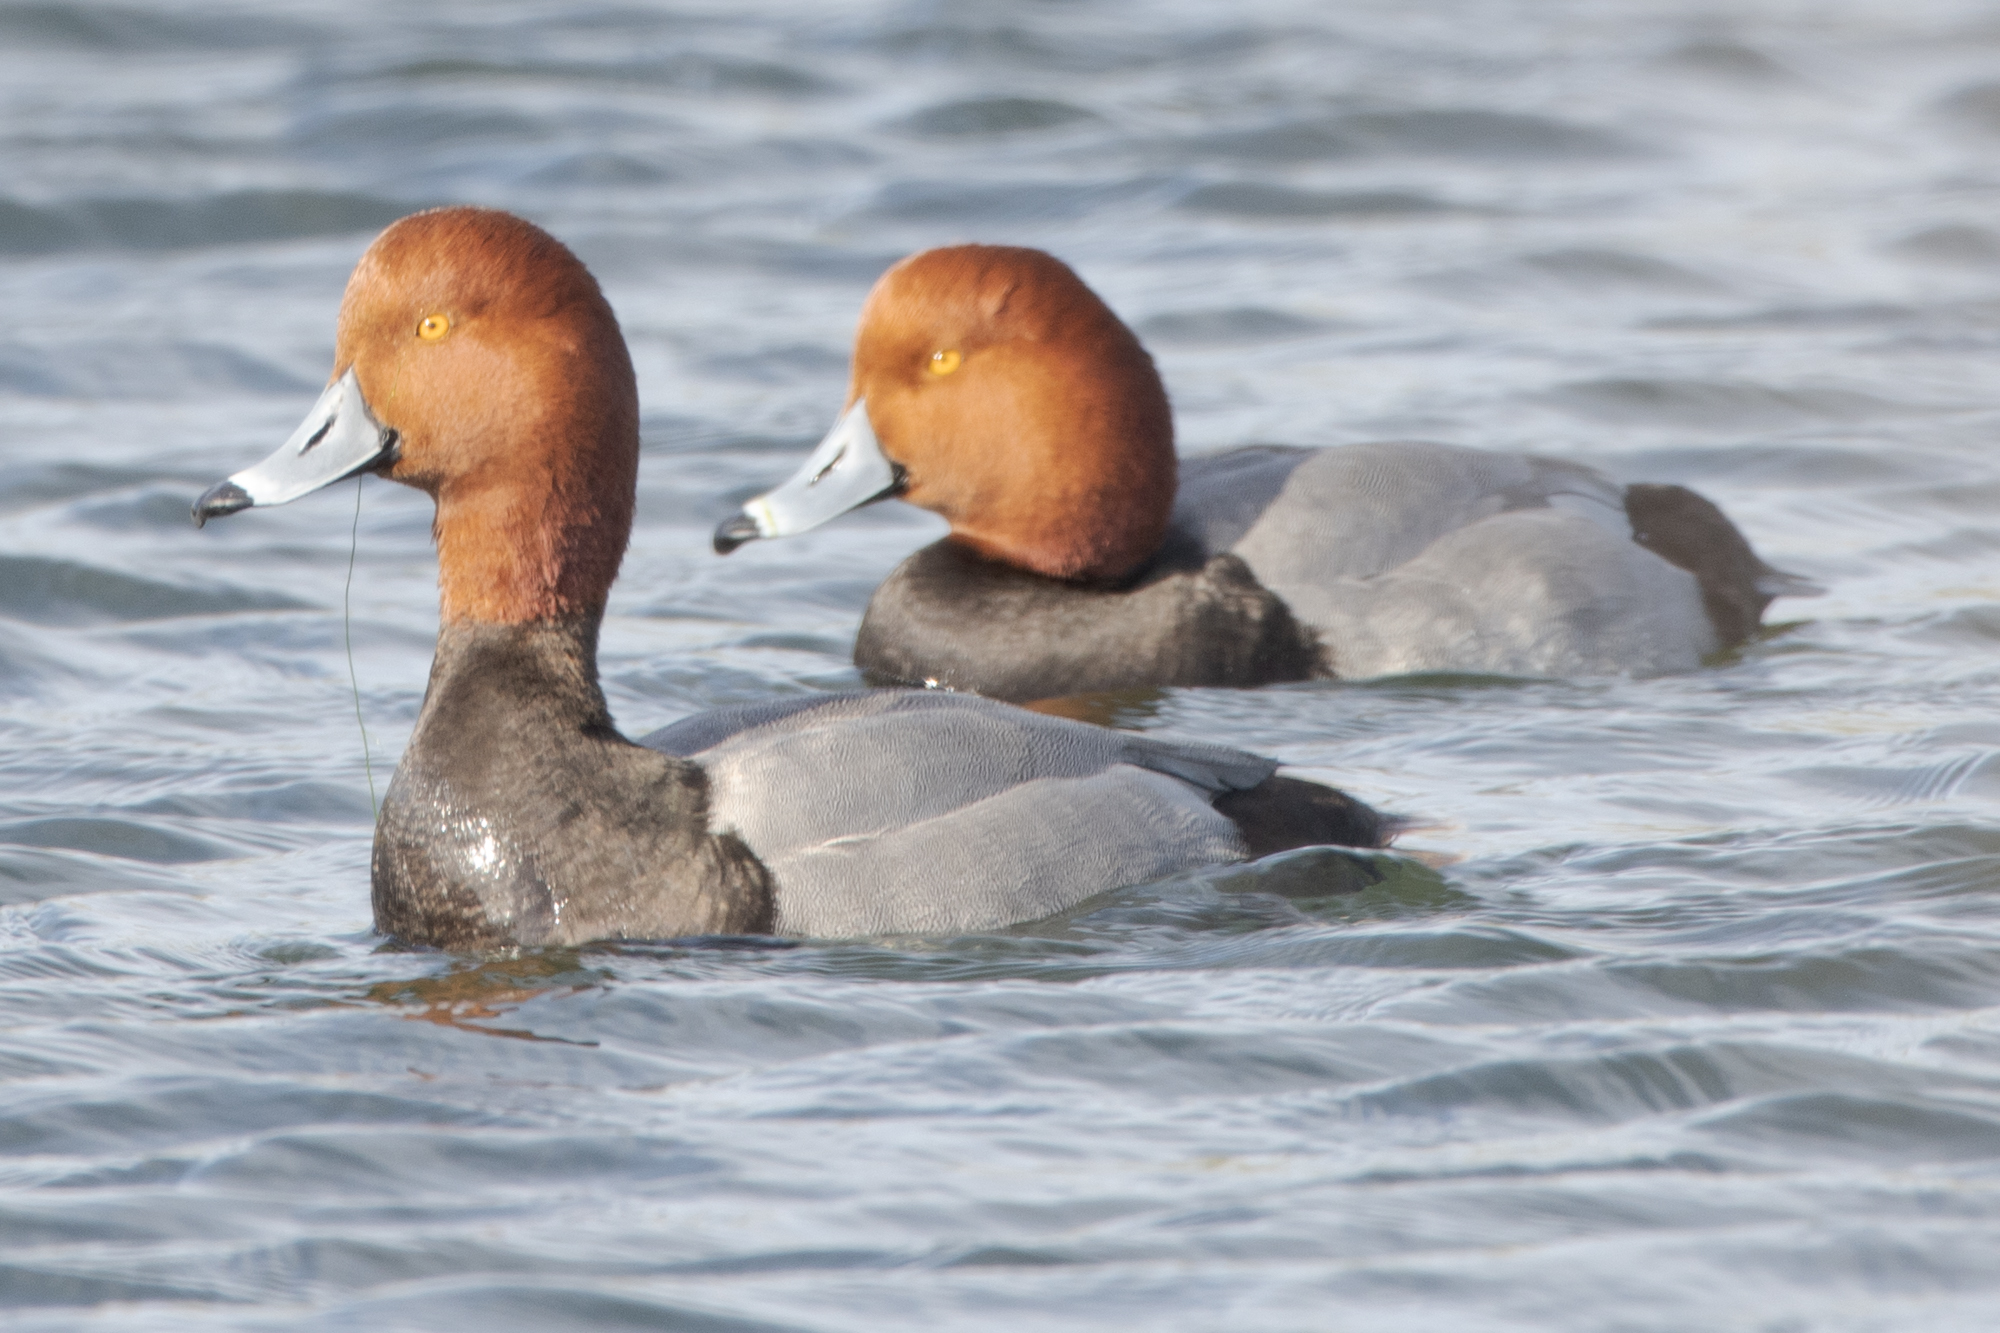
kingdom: Animalia
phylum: Chordata
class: Aves
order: Anseriformes
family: Anatidae
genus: Aythya
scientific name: Aythya americana
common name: Redhead
